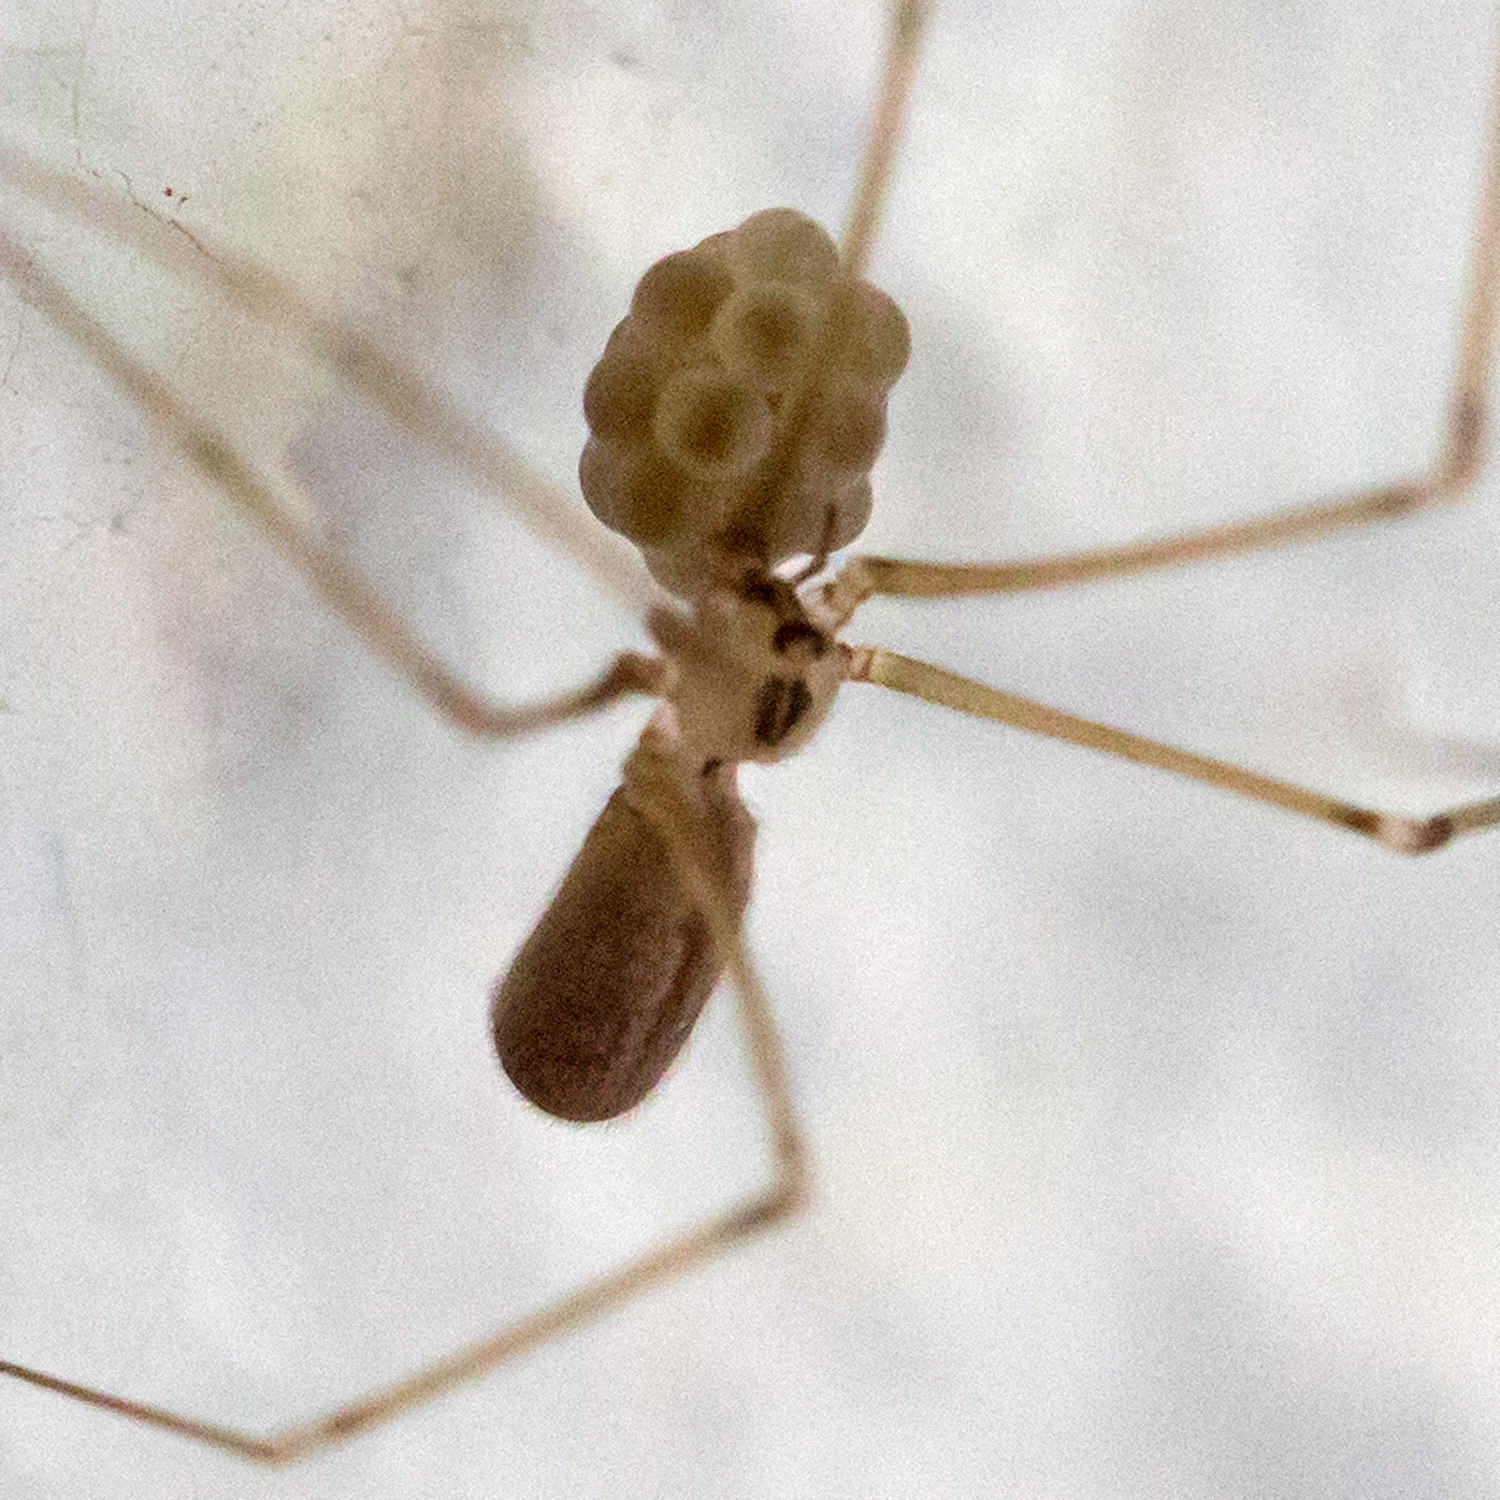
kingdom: Animalia
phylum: Arthropoda
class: Arachnida
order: Araneae
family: Pholcidae
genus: Pholcus
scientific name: Pholcus manueli
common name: Cellar spider
